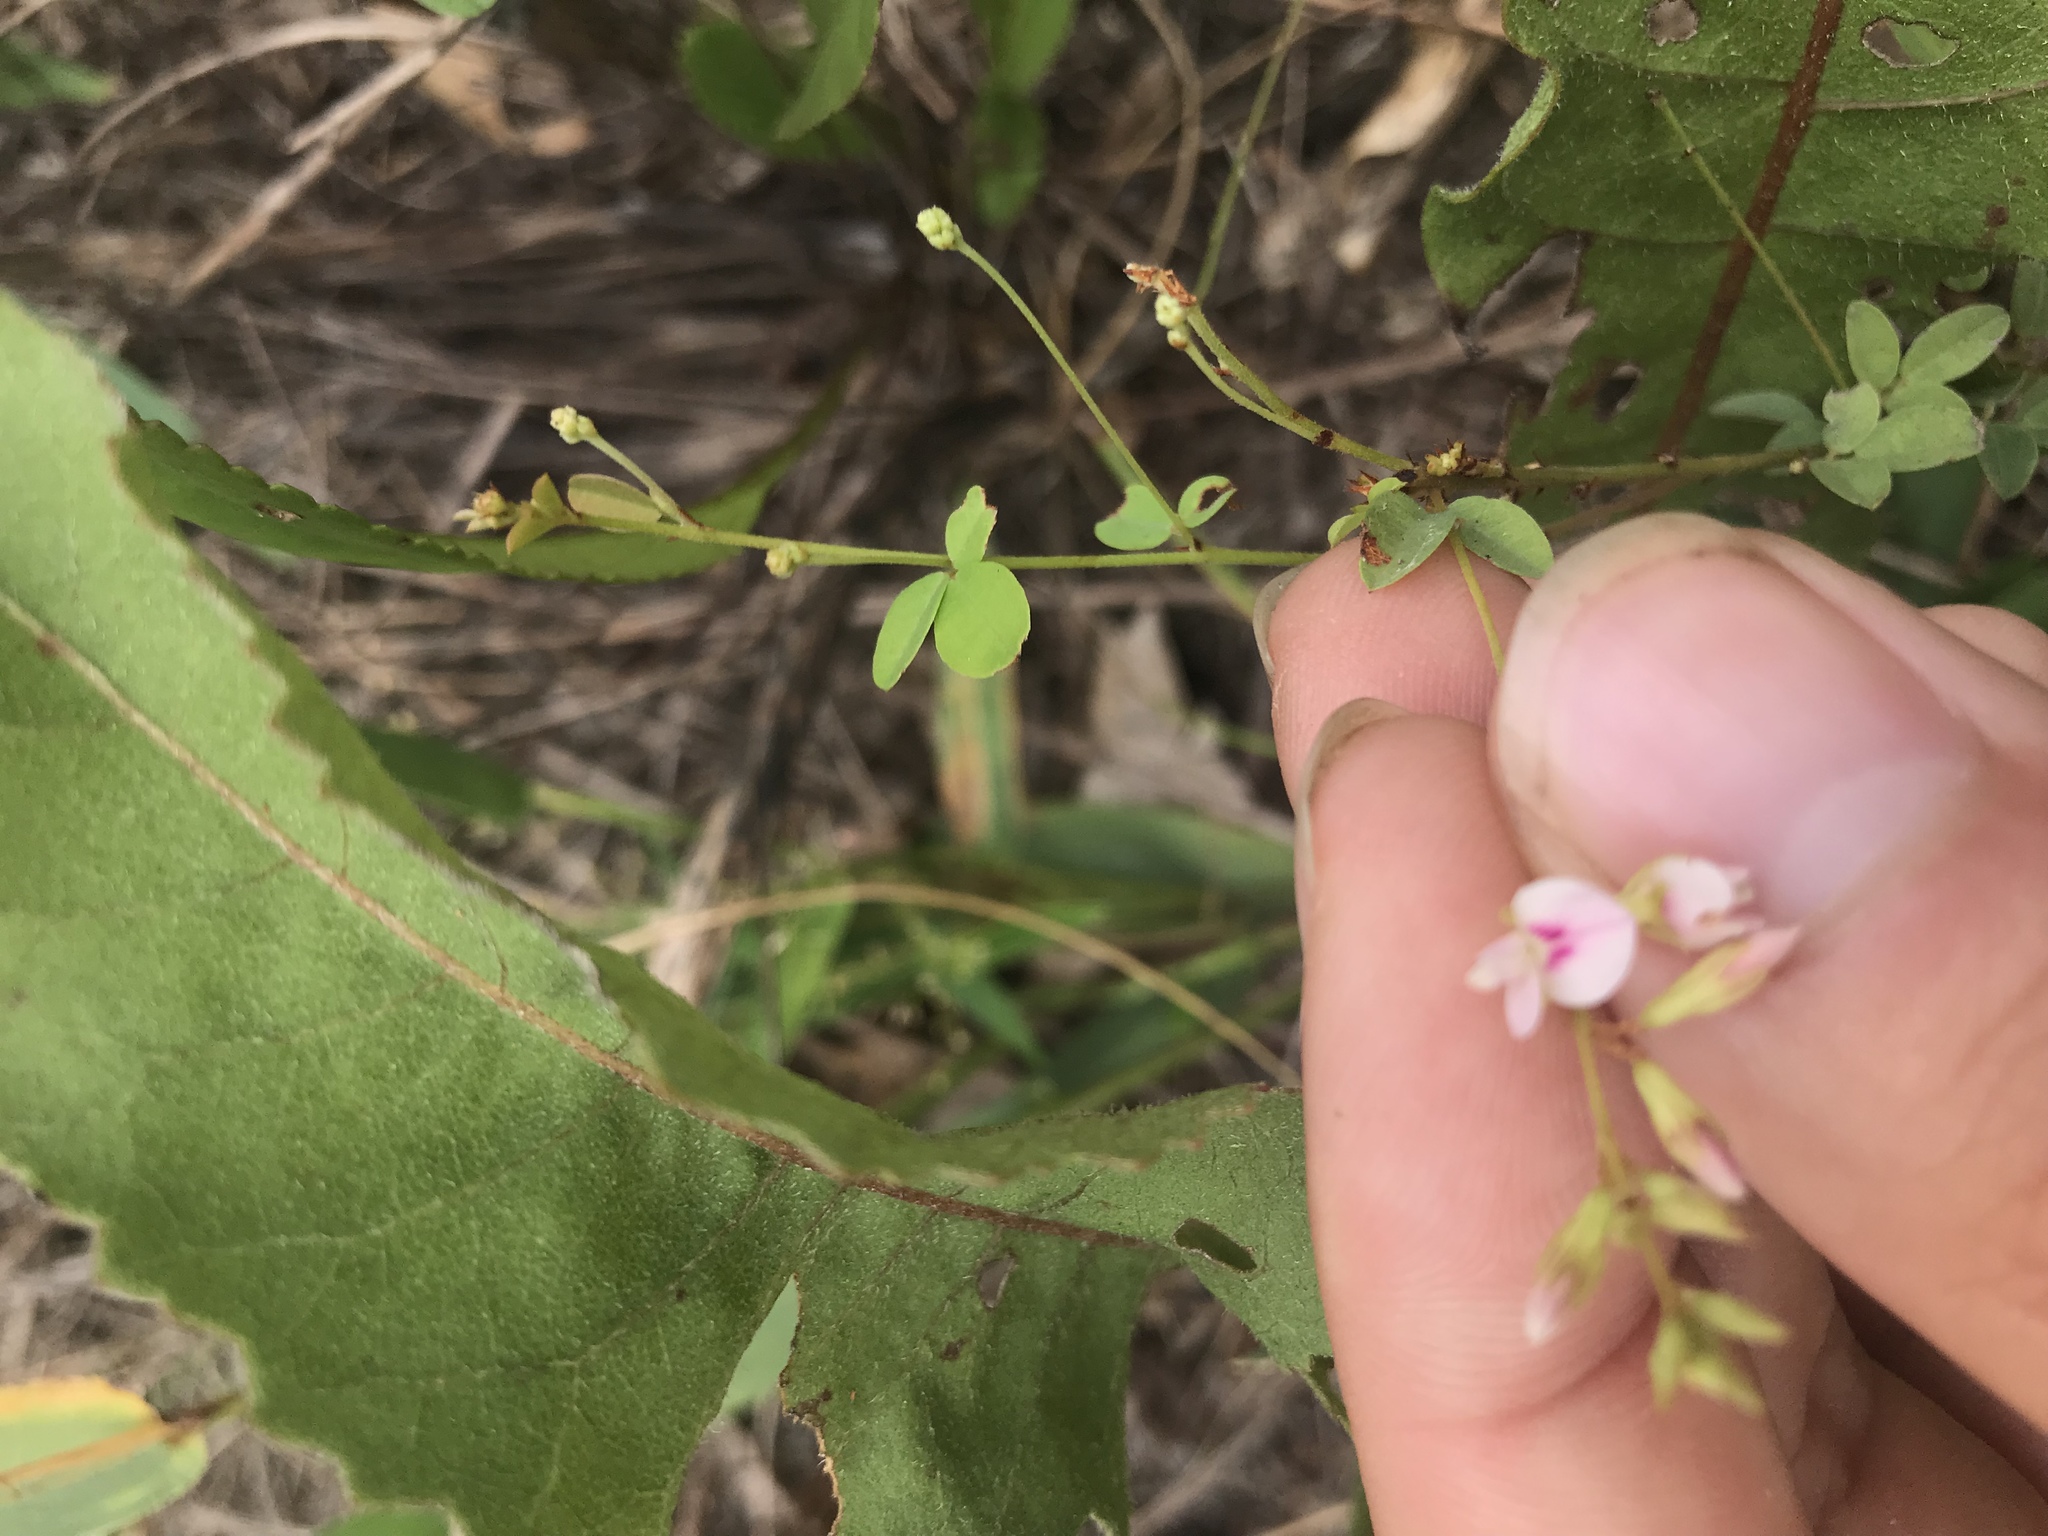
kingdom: Plantae
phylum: Tracheophyta
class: Magnoliopsida
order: Fabales
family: Fabaceae
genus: Lespedeza
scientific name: Lespedeza repens
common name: Creeping bush-clover
